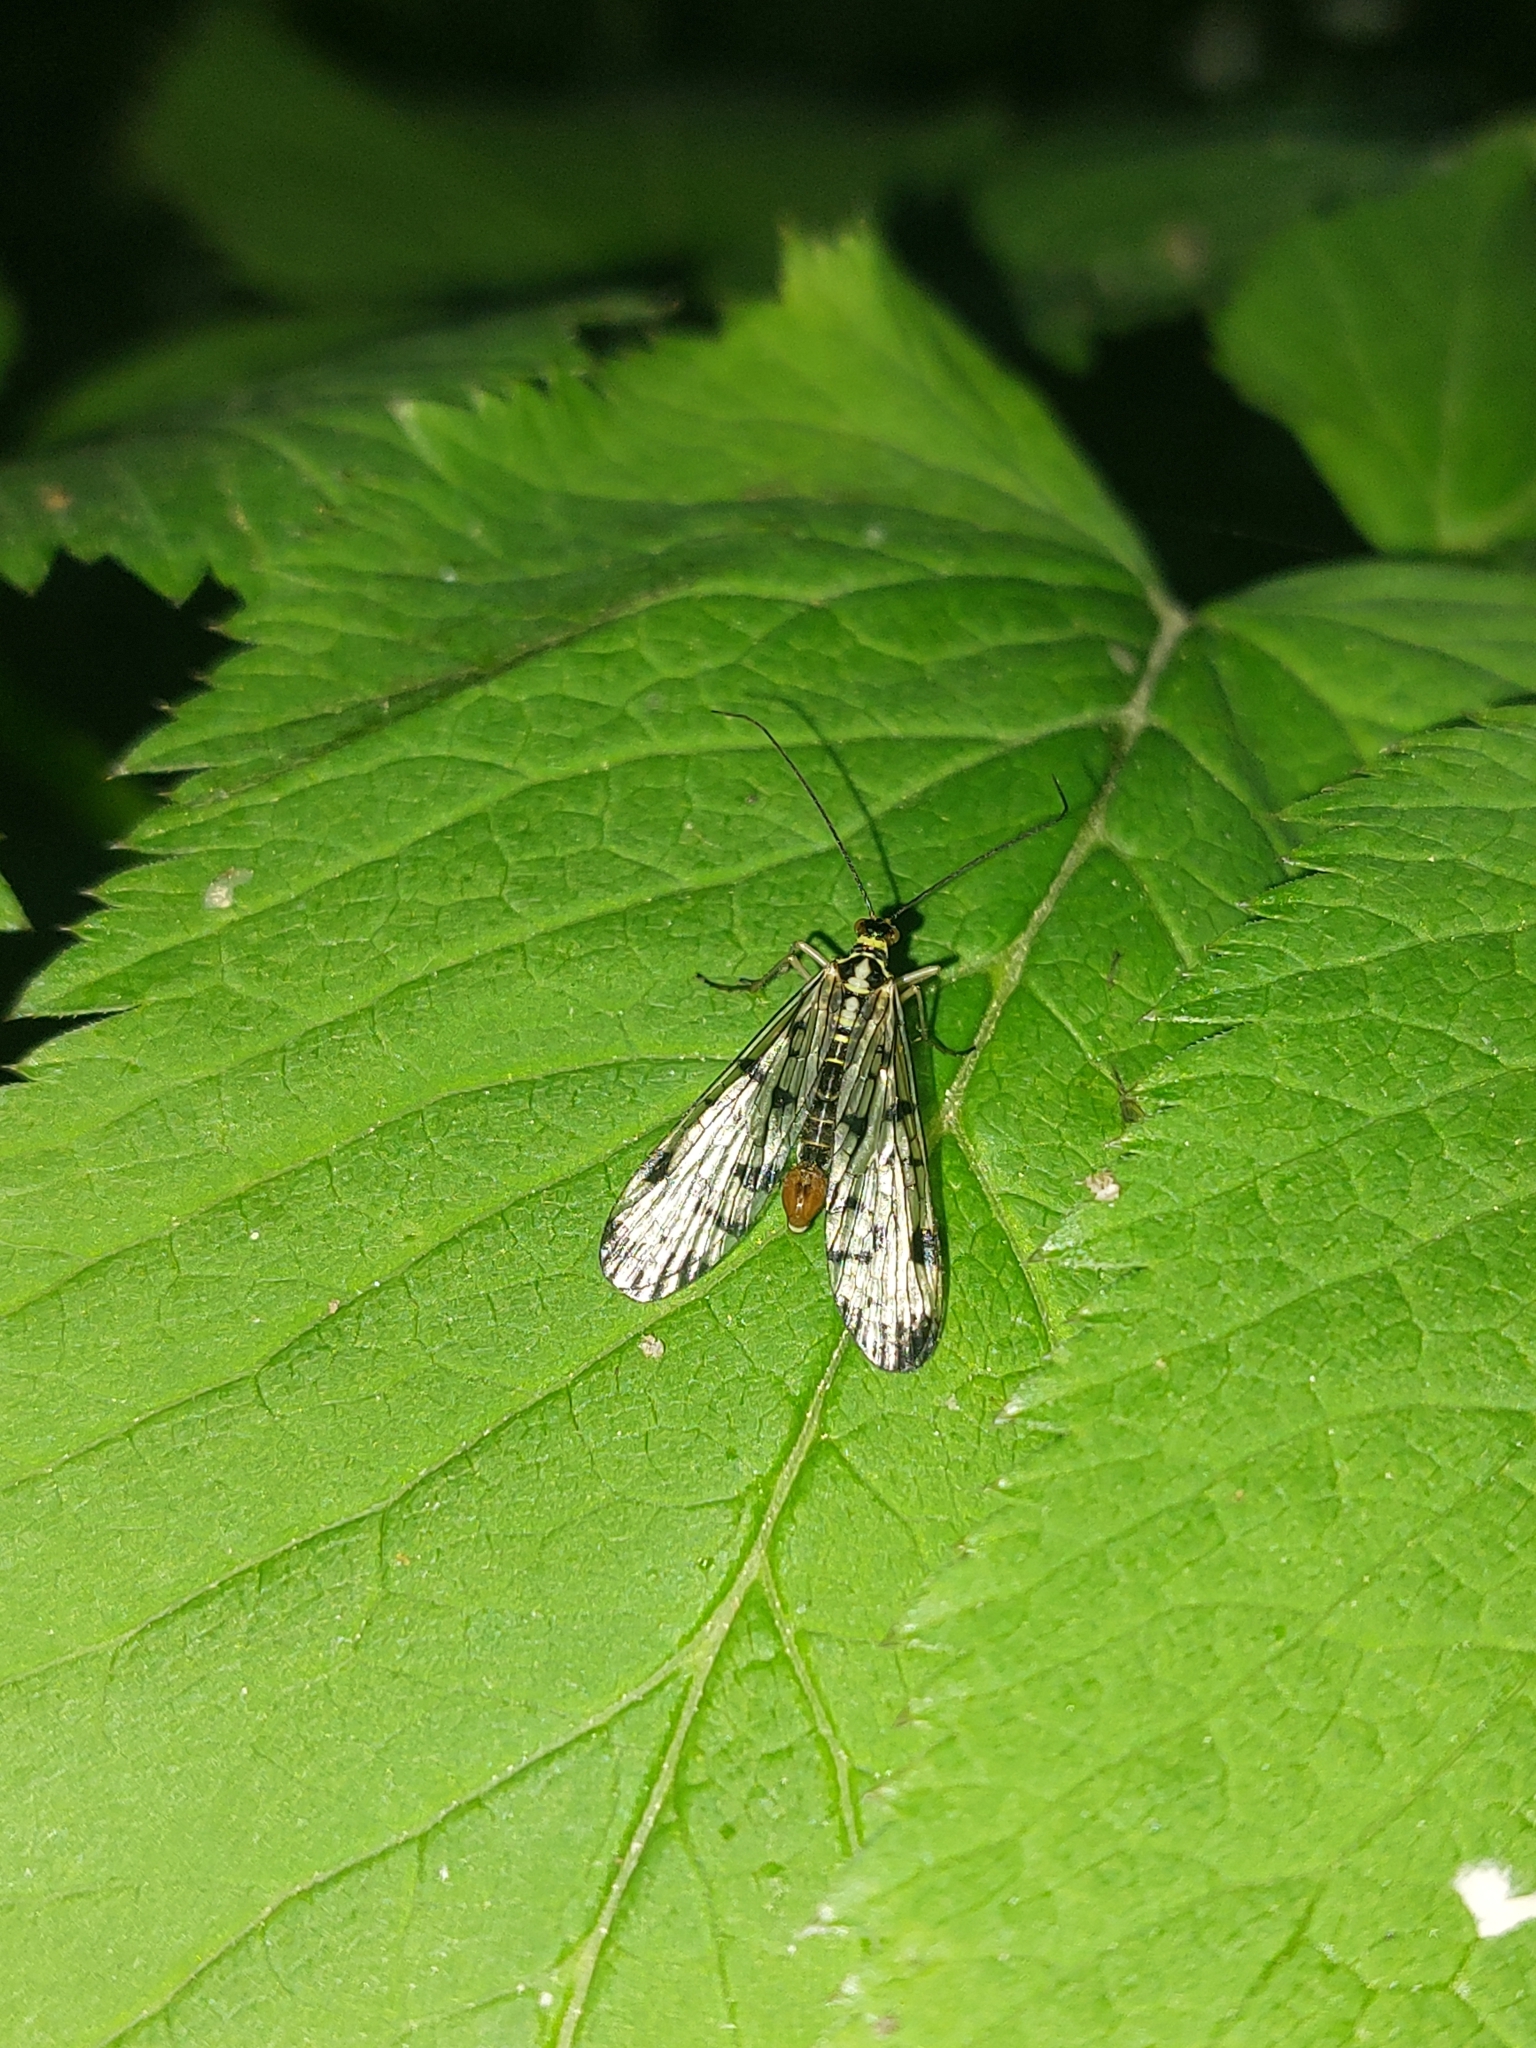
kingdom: Animalia
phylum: Arthropoda
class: Insecta
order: Mecoptera
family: Panorpidae
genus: Panorpa
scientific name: Panorpa communis
